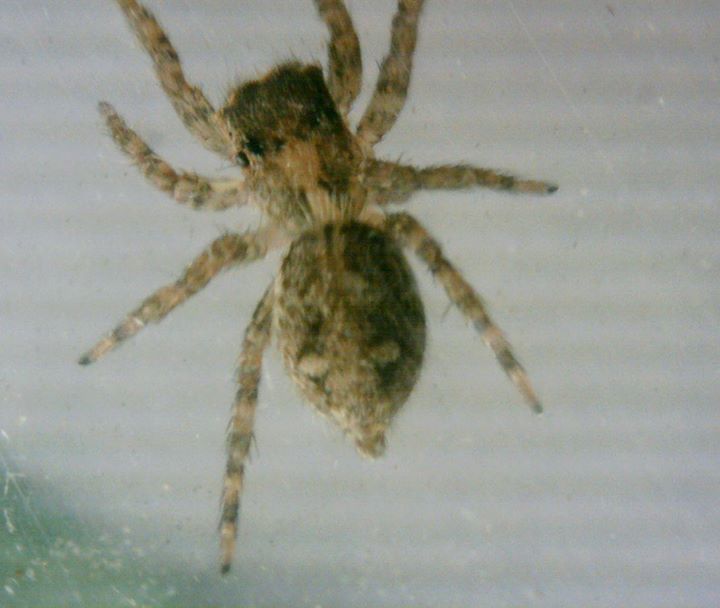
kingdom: Animalia
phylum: Arthropoda
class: Arachnida
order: Araneae
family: Salticidae
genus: Plexippus
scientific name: Plexippus petersi
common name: Jumping spider
